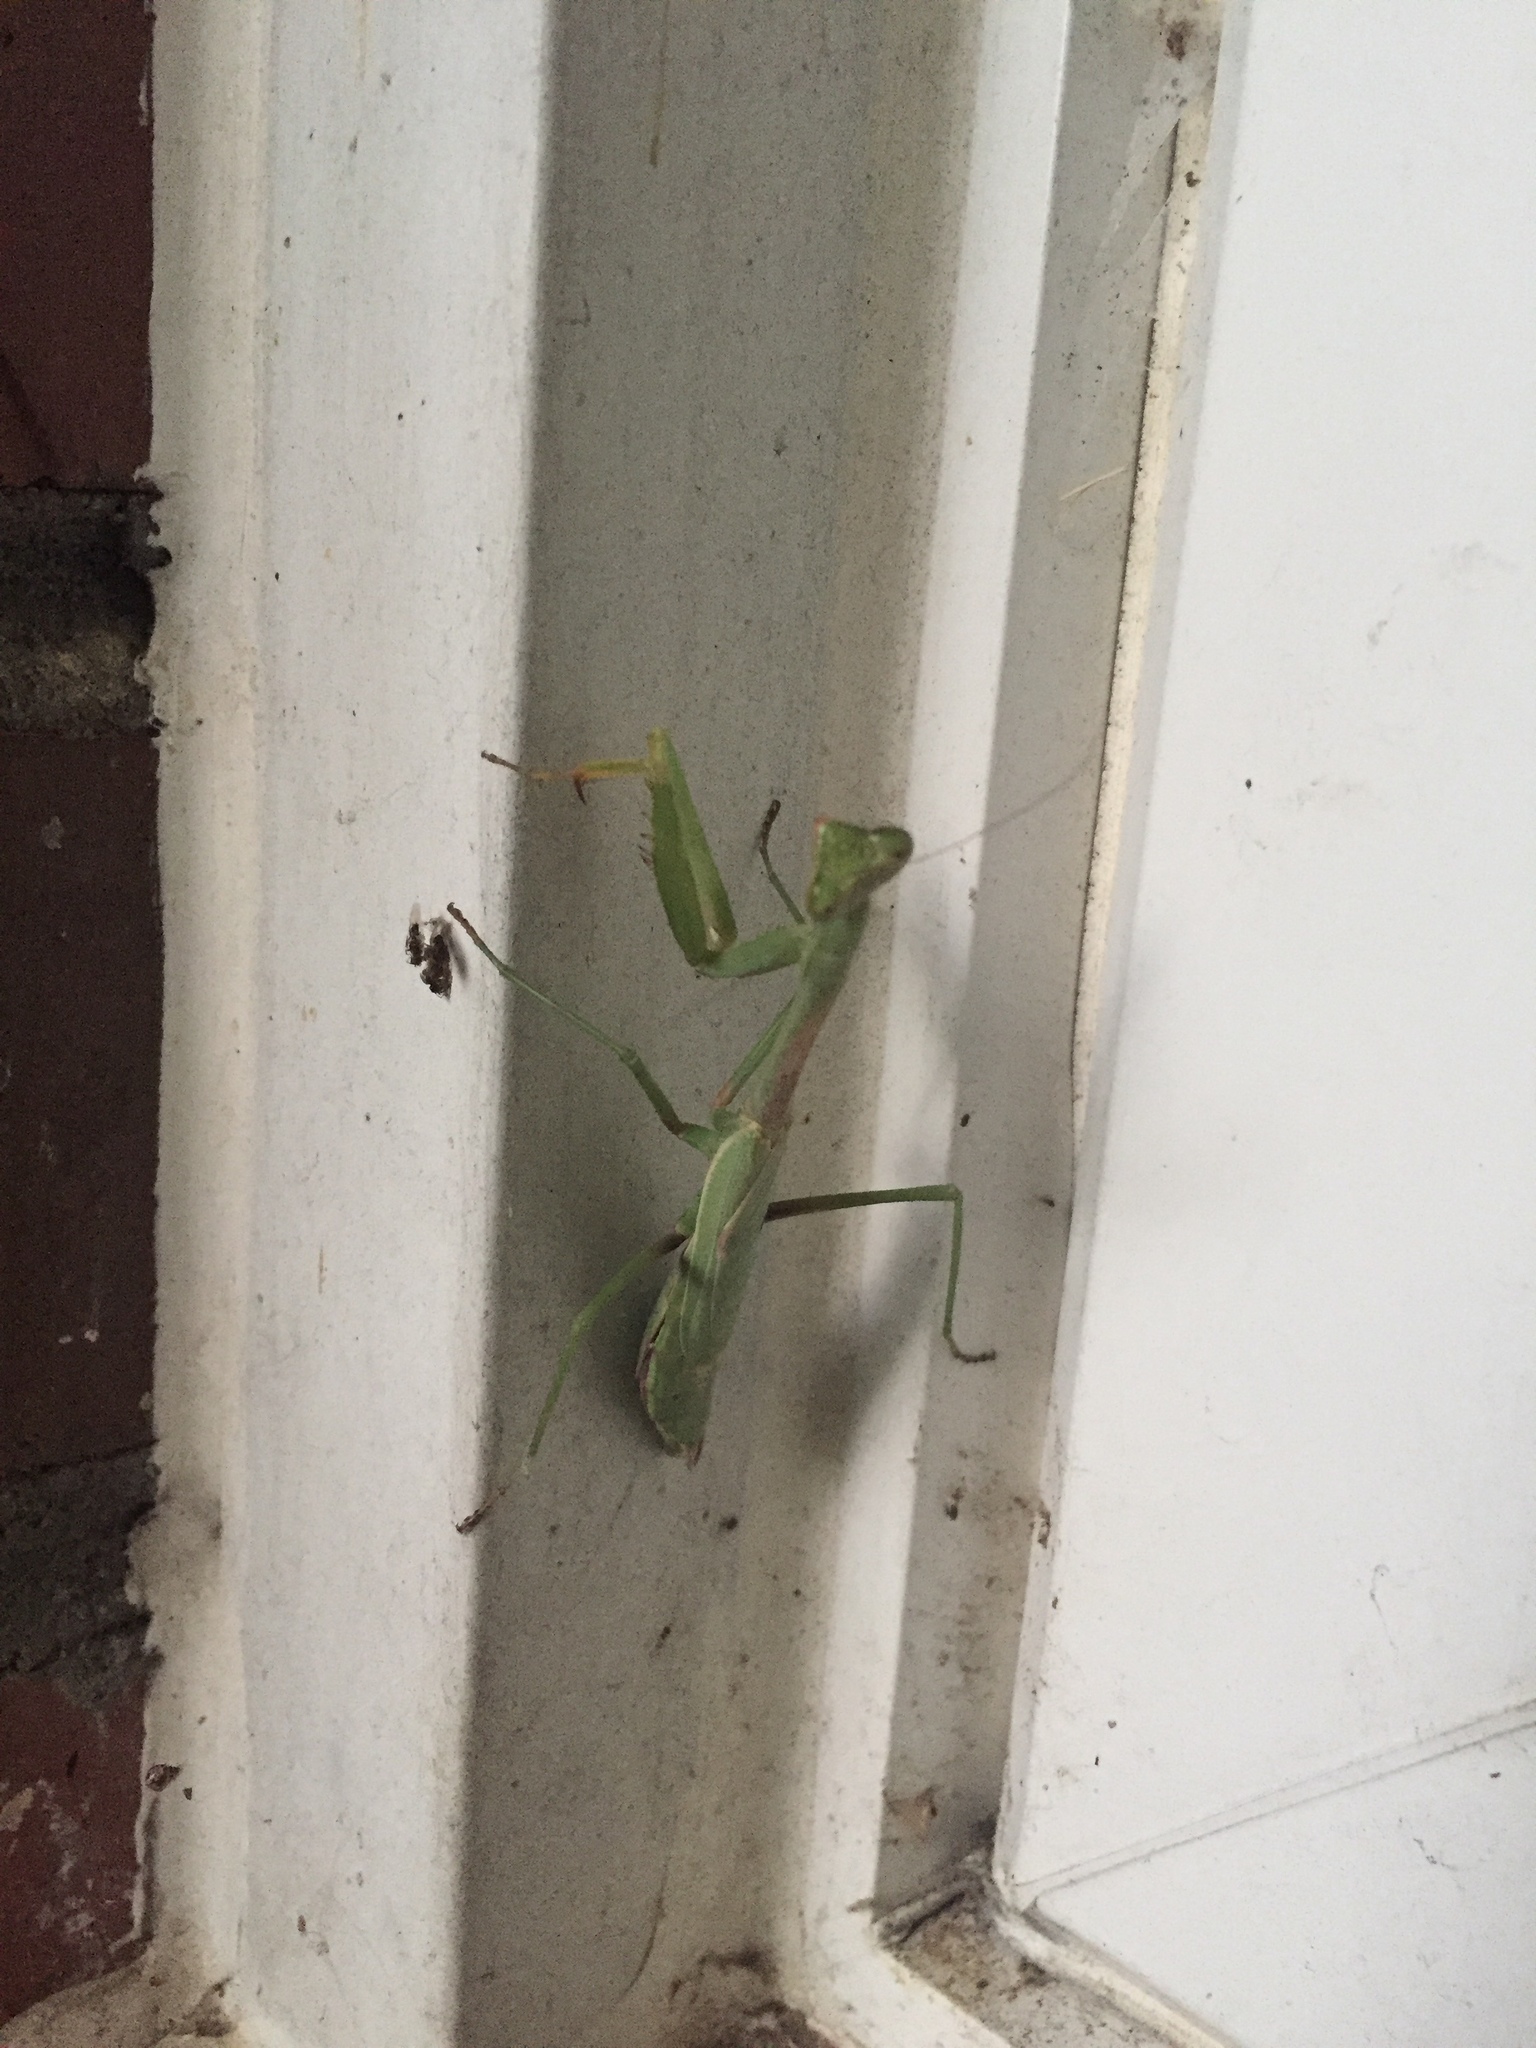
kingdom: Animalia
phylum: Arthropoda
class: Insecta
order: Mantodea
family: Mantidae
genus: Stagmomantis
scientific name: Stagmomantis carolina
